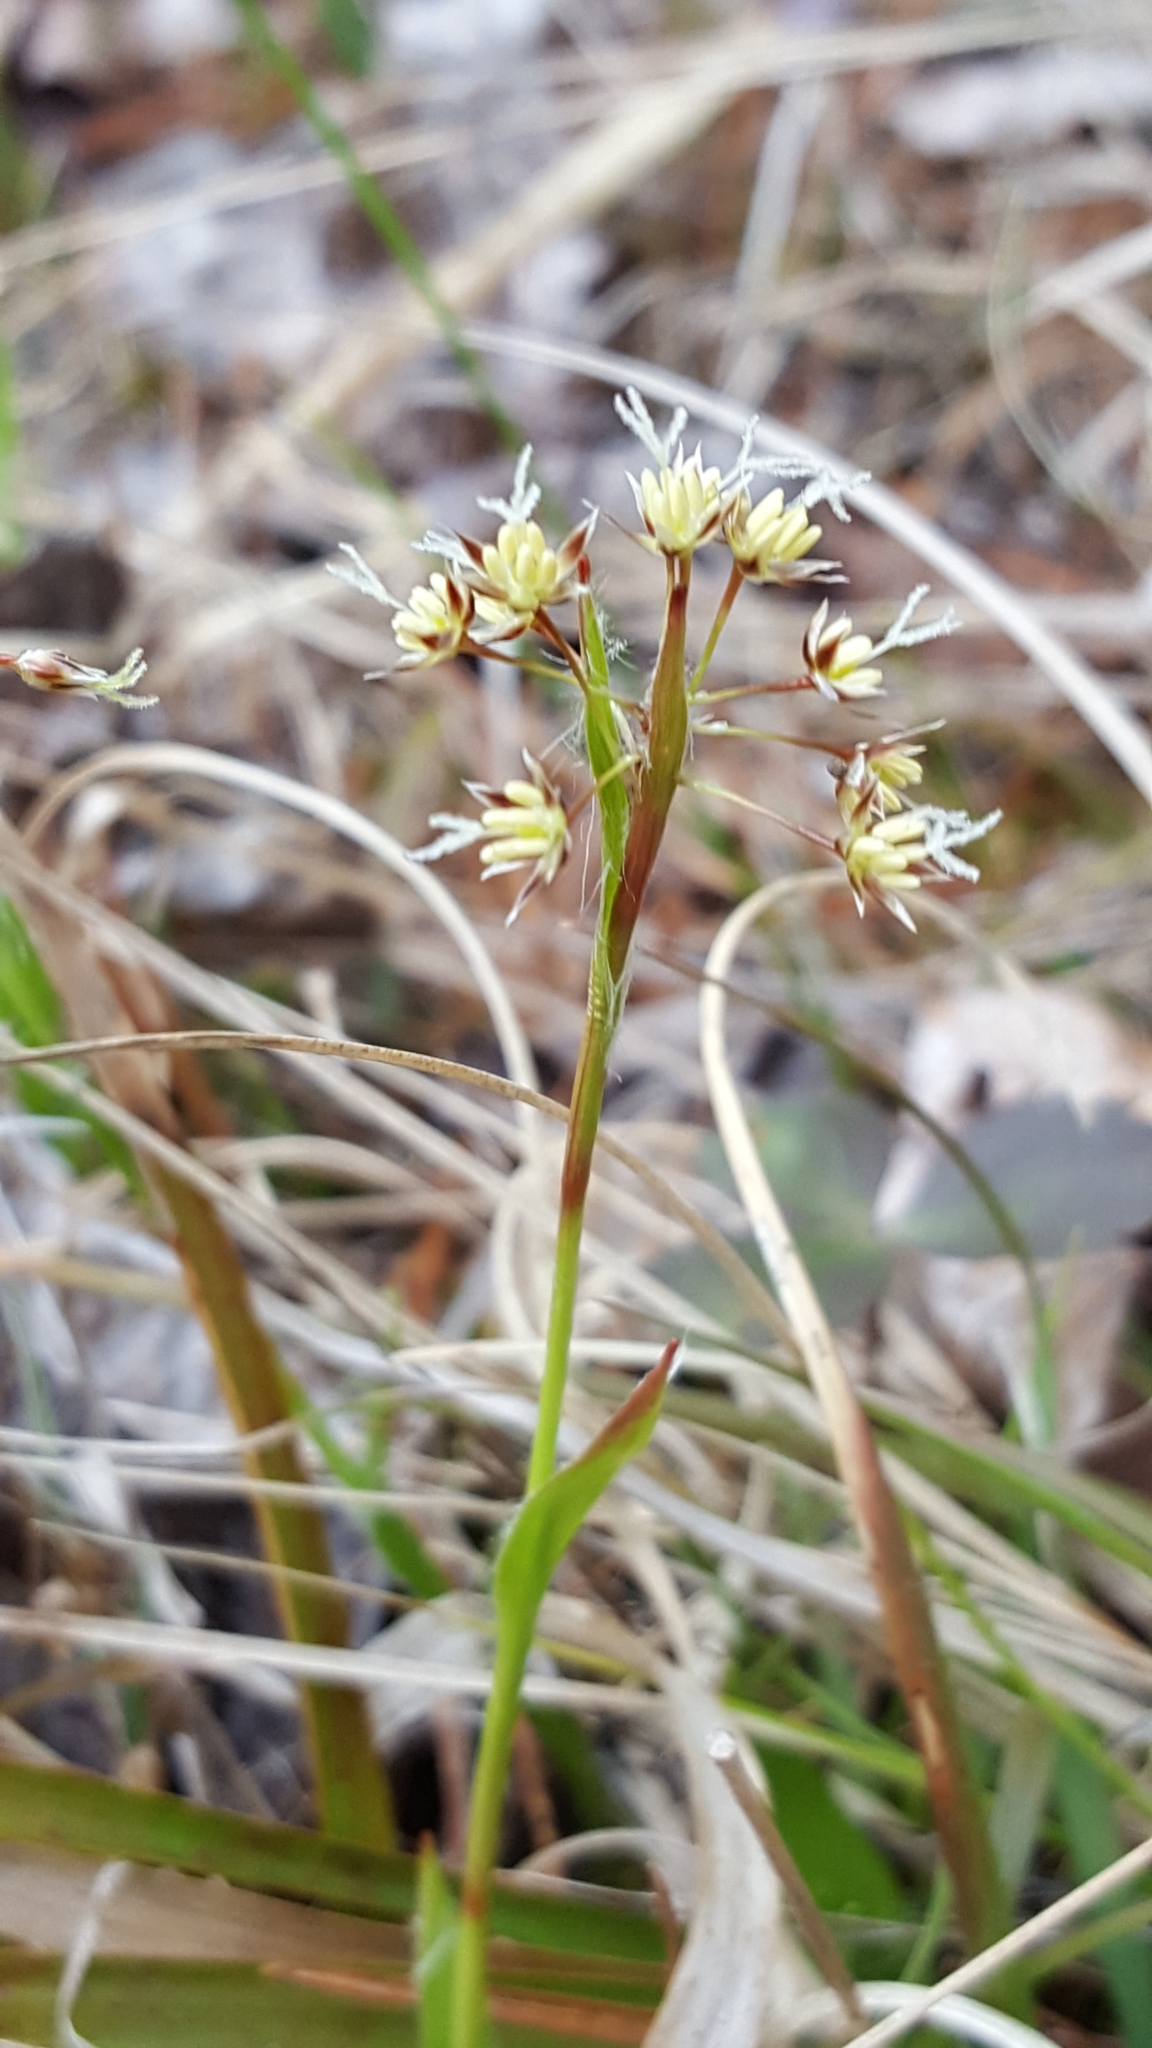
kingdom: Plantae
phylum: Tracheophyta
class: Liliopsida
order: Poales
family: Juncaceae
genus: Luzula
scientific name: Luzula acuminata
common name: Hairy woodrush
